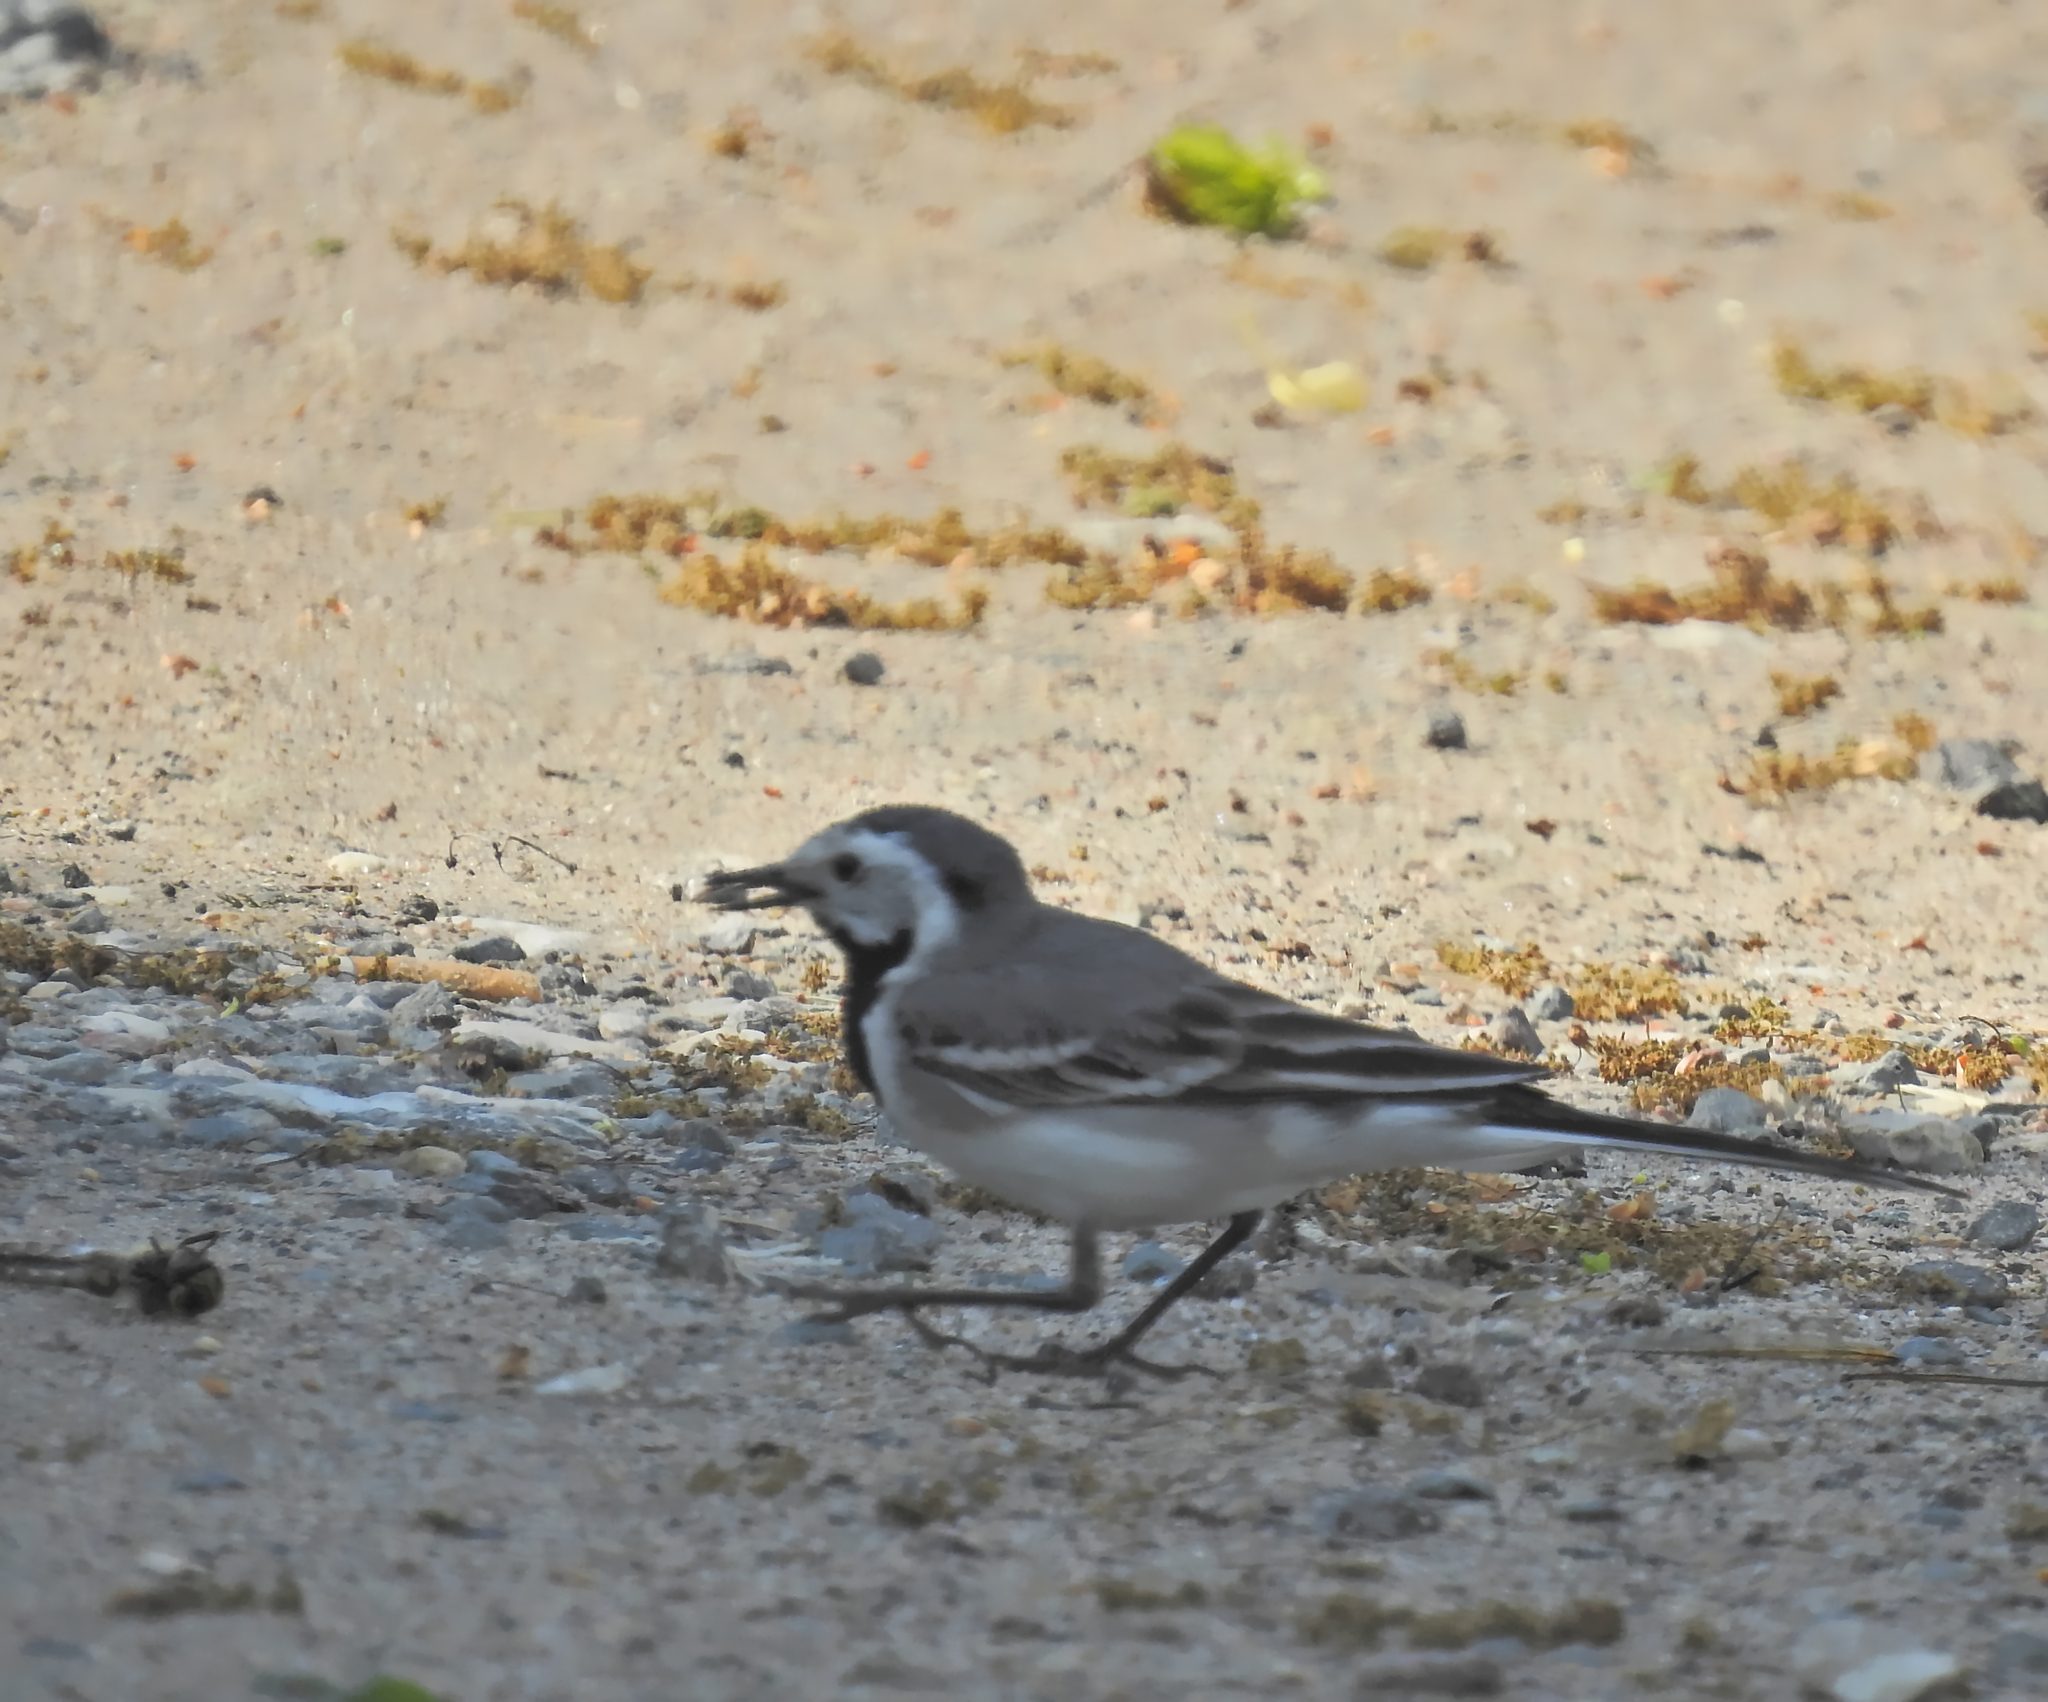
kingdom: Animalia
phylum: Chordata
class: Aves
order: Passeriformes
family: Motacillidae
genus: Motacilla
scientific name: Motacilla alba
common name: White wagtail
